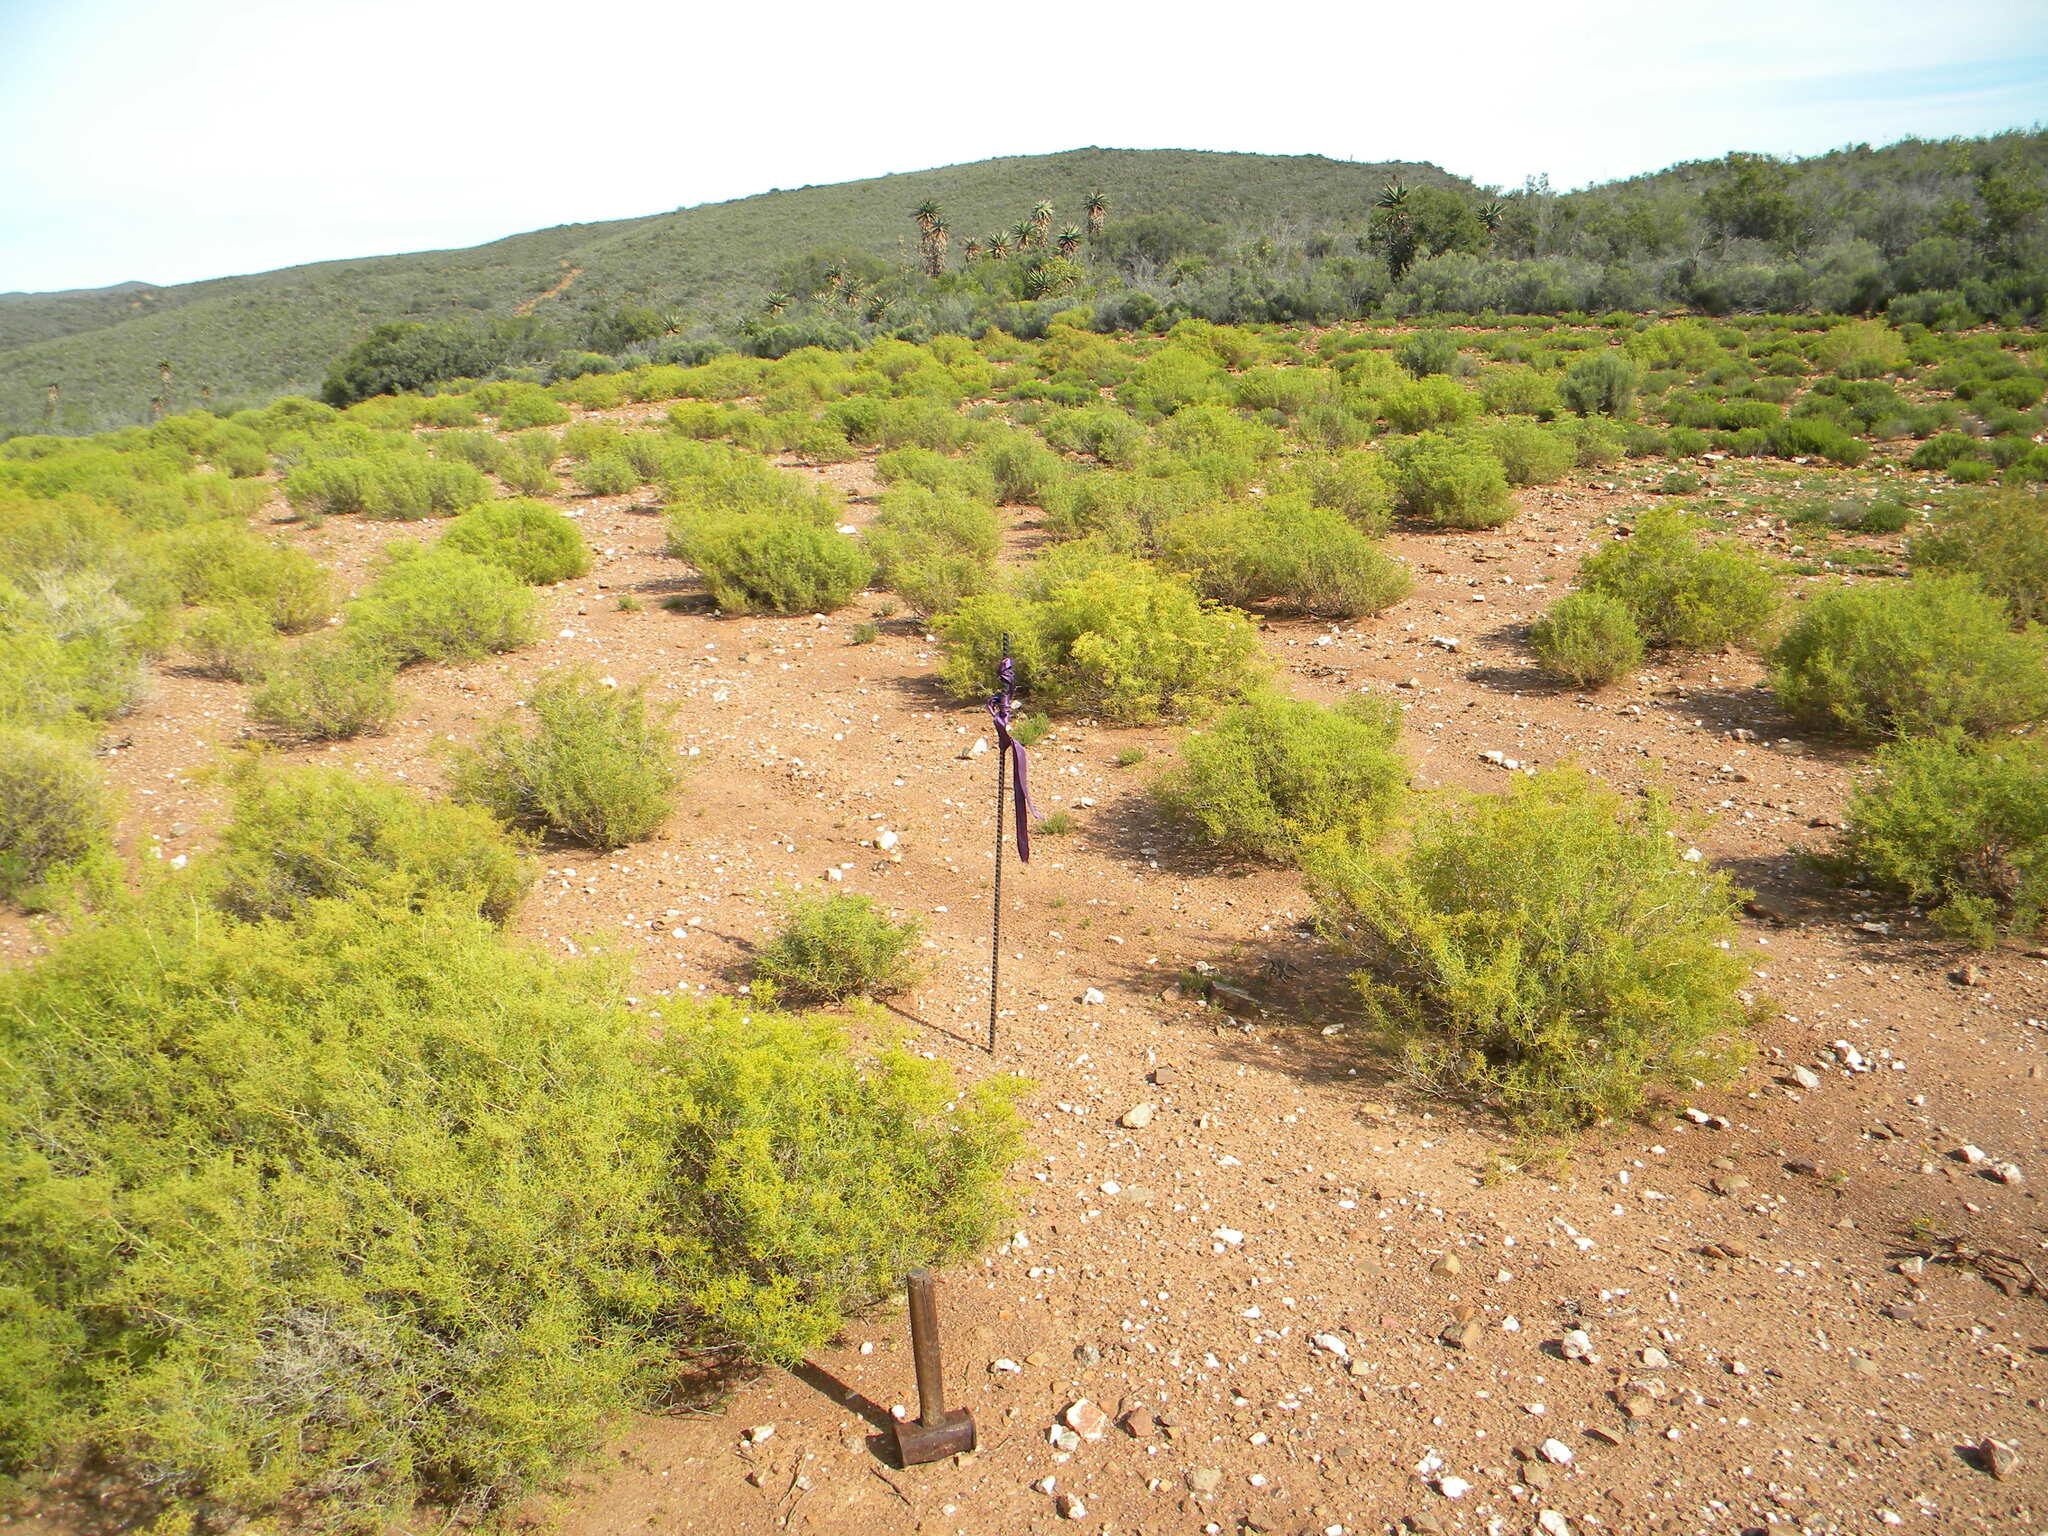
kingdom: Plantae
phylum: Tracheophyta
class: Magnoliopsida
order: Caryophyllales
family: Aizoaceae
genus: Aizoon
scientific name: Aizoon africanum
